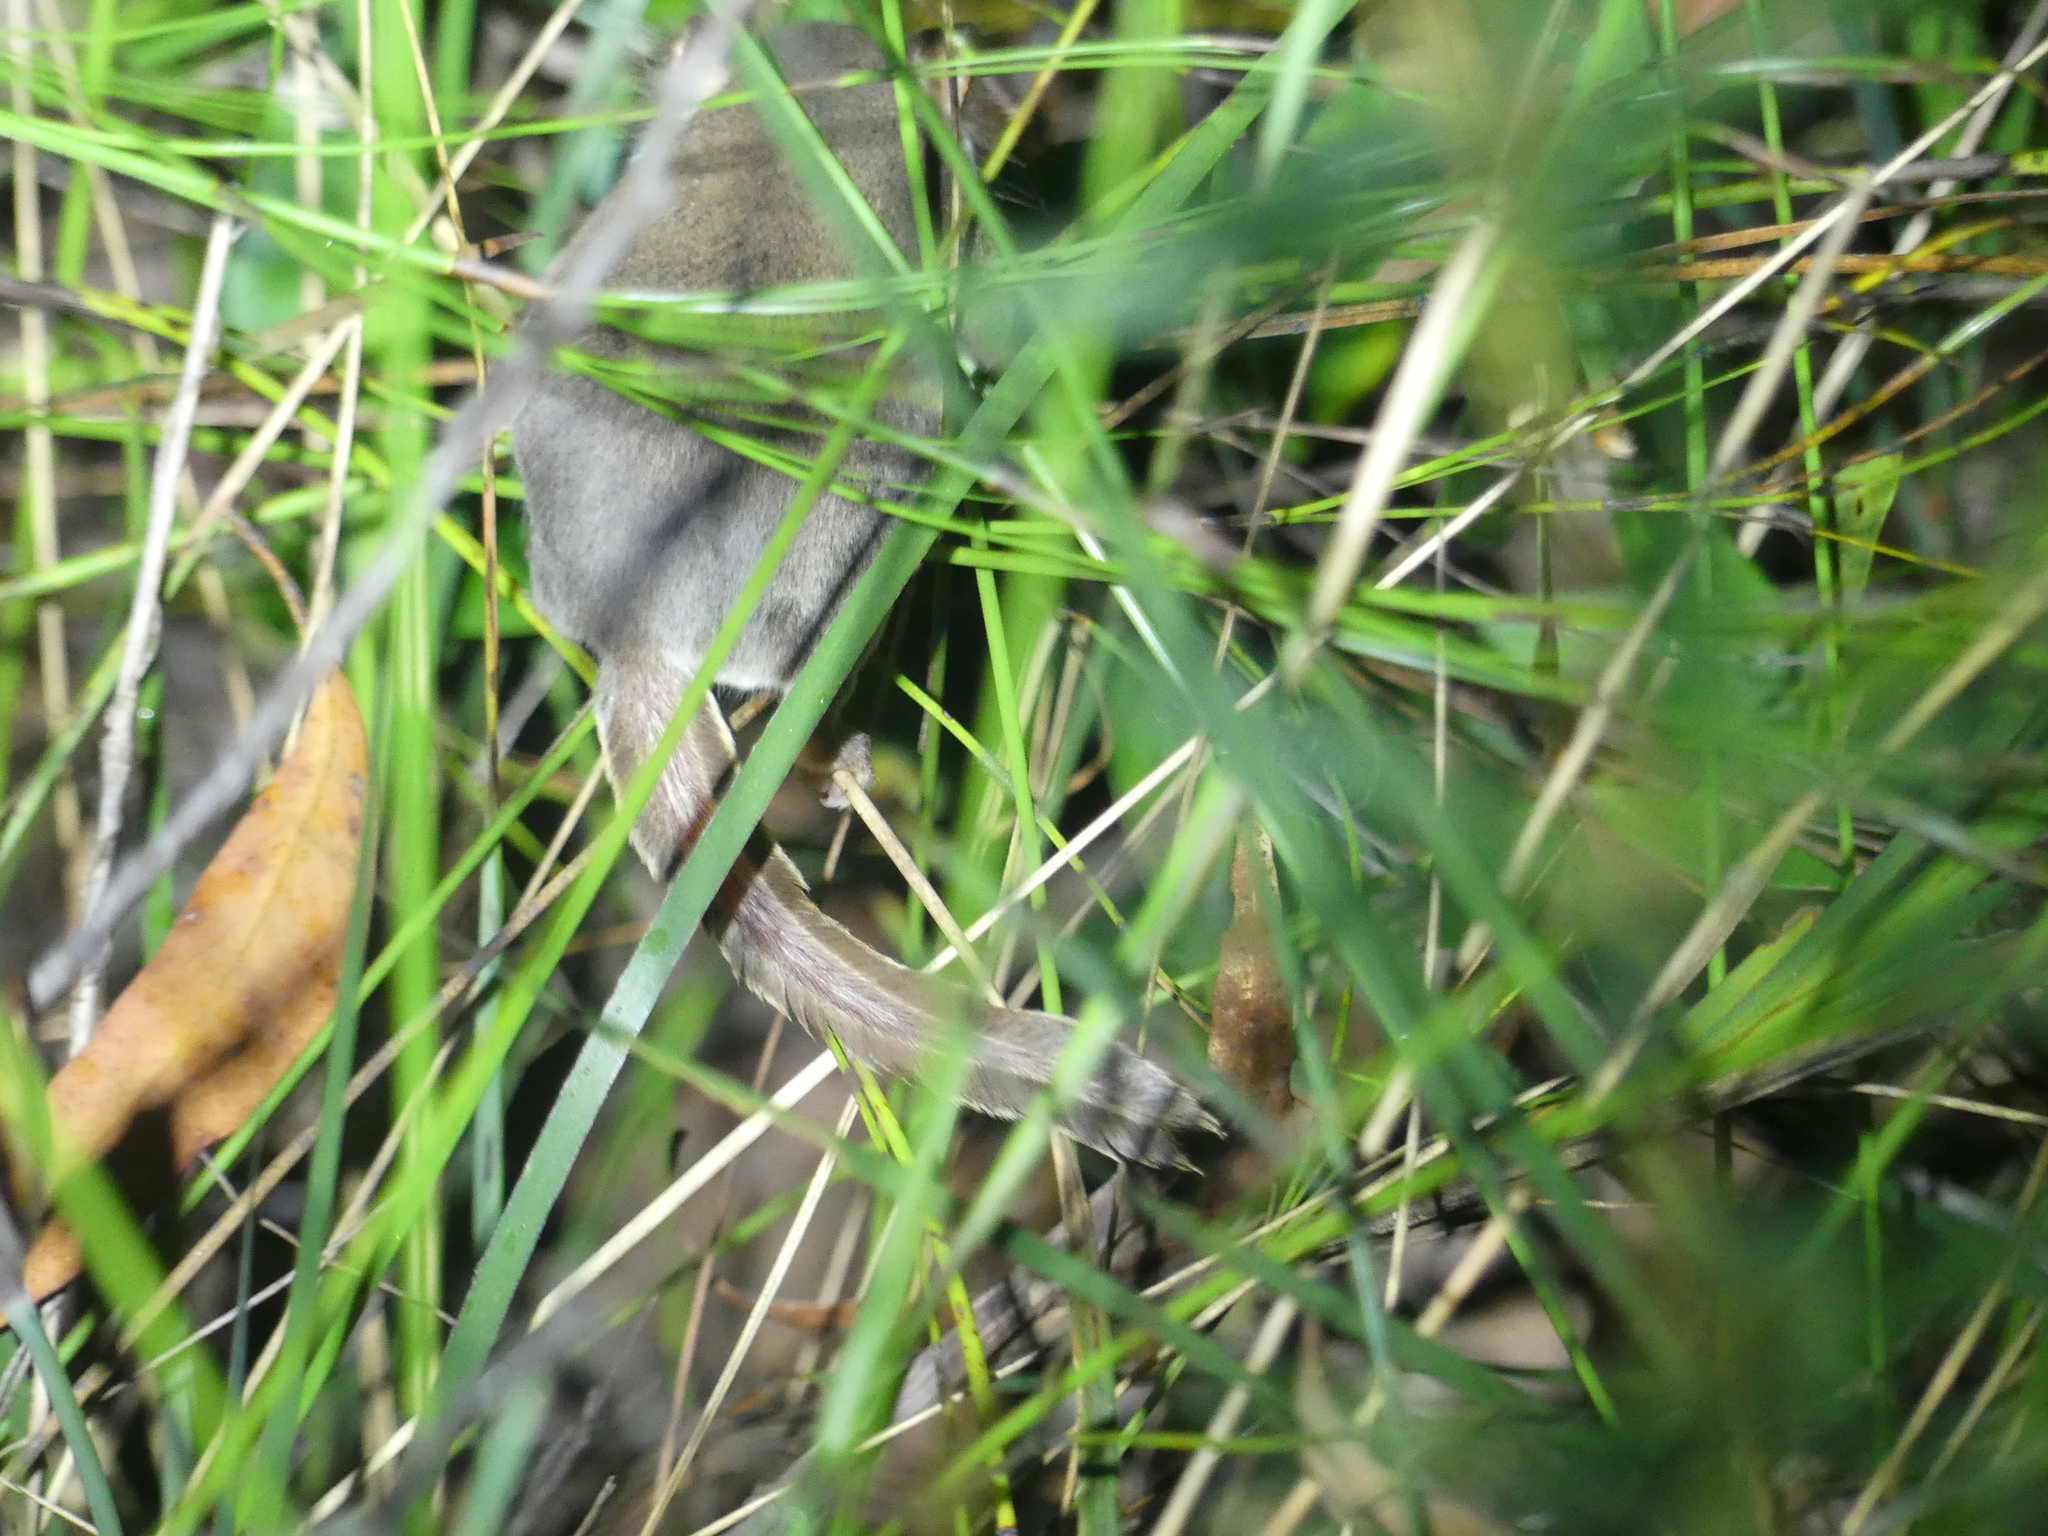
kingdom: Animalia
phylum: Chordata
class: Mammalia
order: Diprotodontia
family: Acrobatidae
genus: Acrobates
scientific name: Acrobates pygmaeus
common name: Feathertail glider
